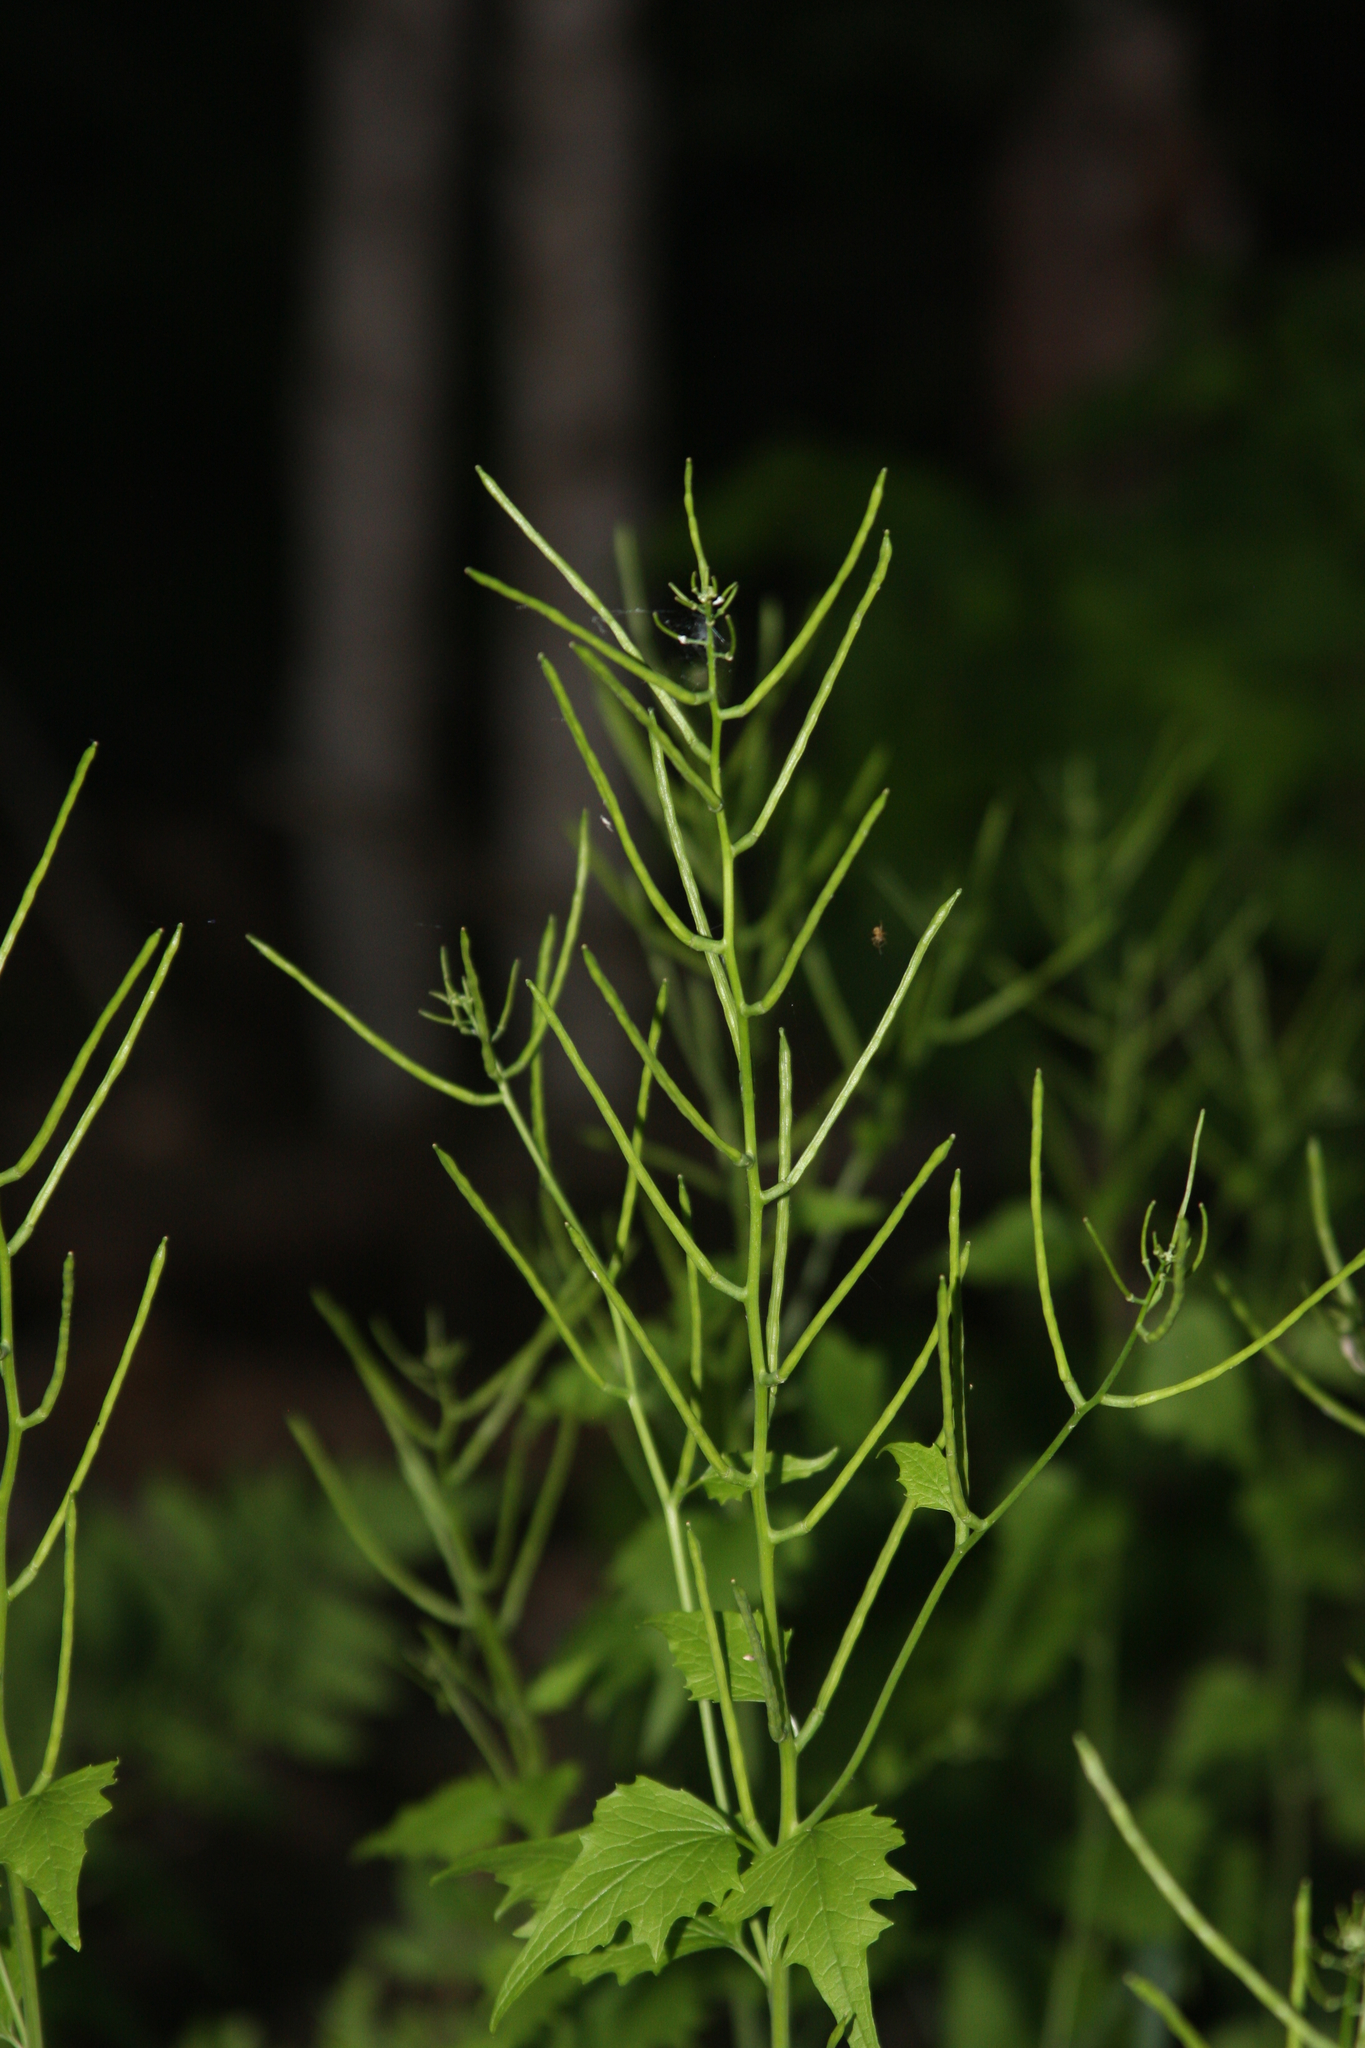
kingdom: Plantae
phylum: Tracheophyta
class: Magnoliopsida
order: Brassicales
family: Brassicaceae
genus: Alliaria
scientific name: Alliaria petiolata
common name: Garlic mustard
